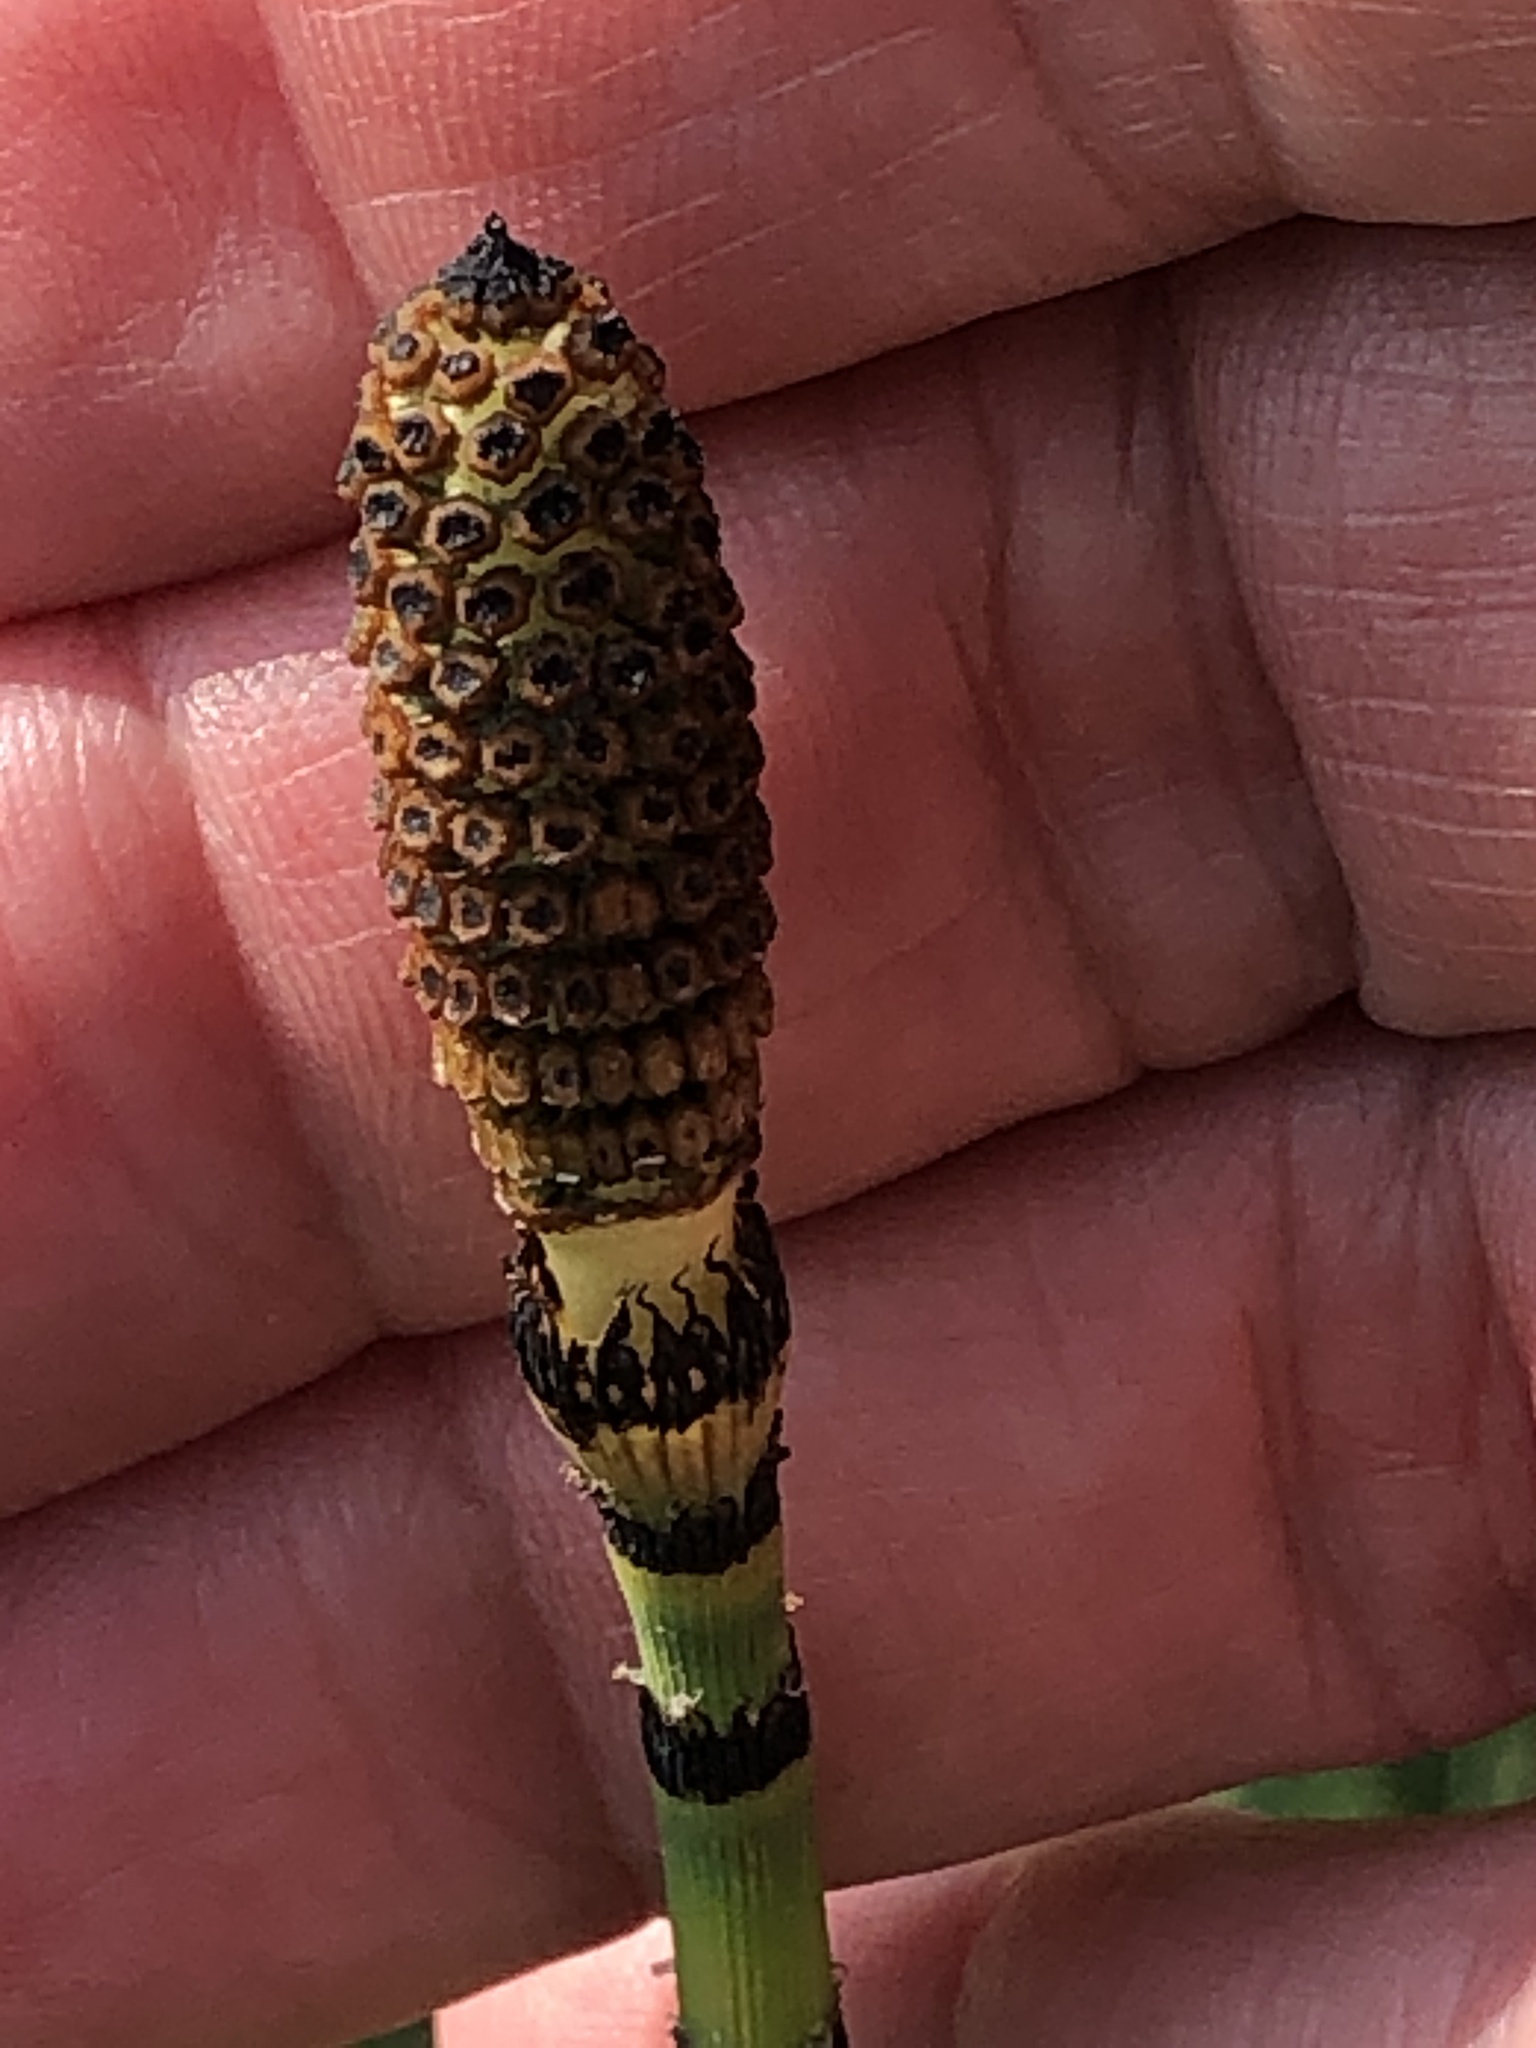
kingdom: Plantae
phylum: Tracheophyta
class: Polypodiopsida
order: Equisetales
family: Equisetaceae
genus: Equisetum
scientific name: Equisetum hyemale
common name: Rough horsetail
